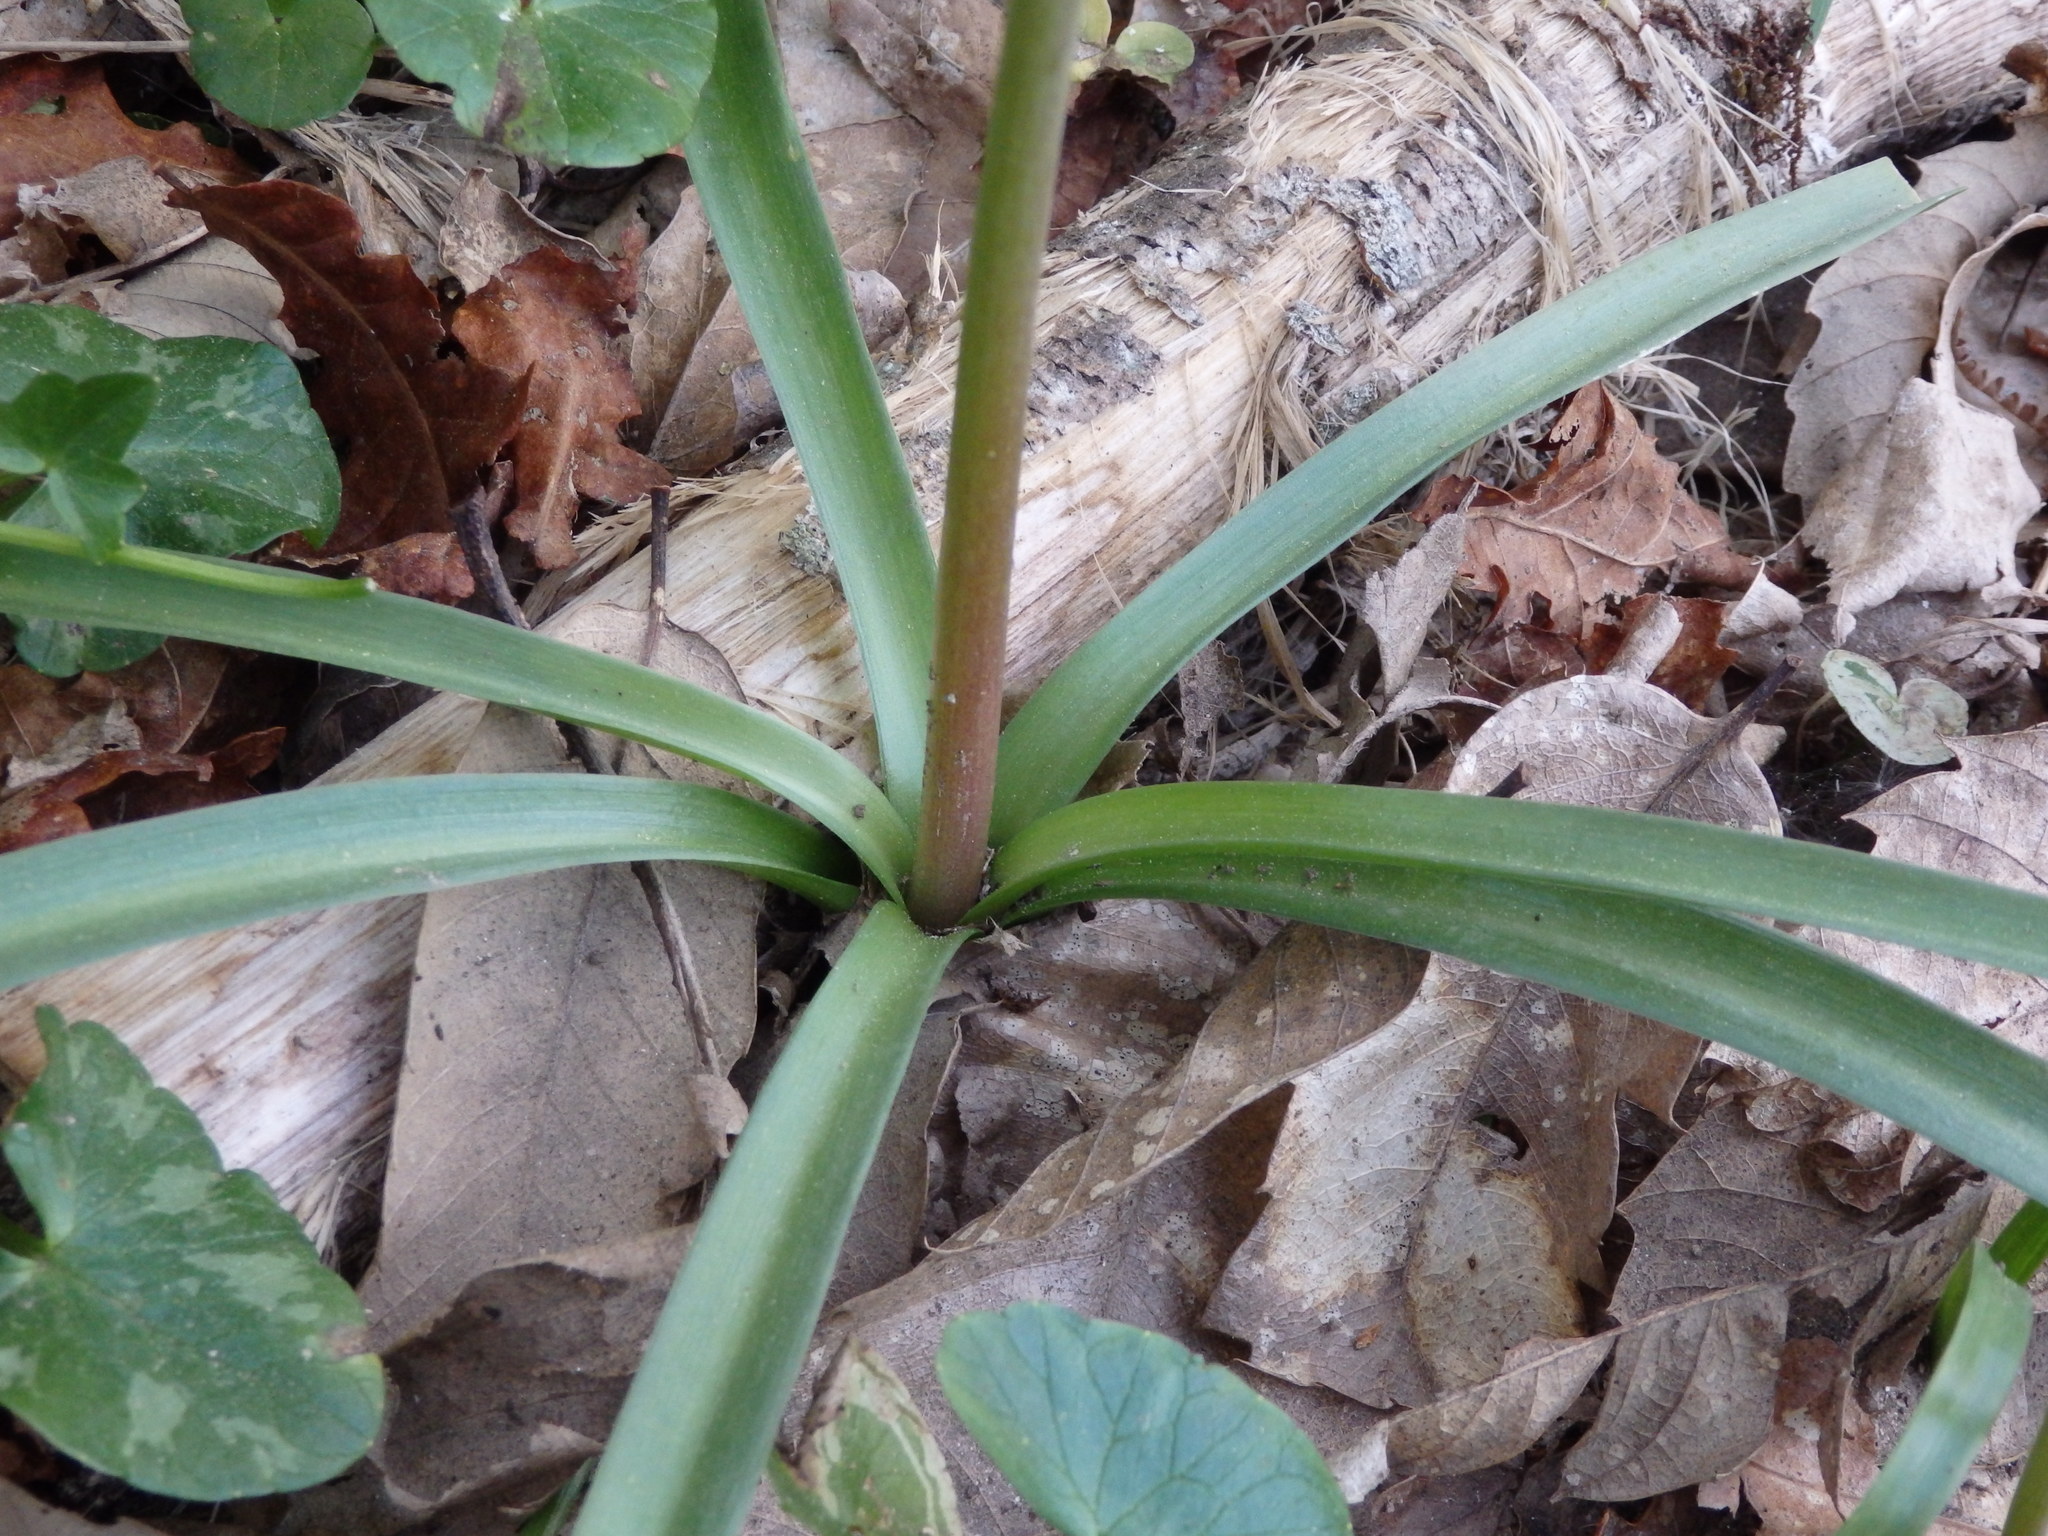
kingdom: Plantae
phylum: Tracheophyta
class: Liliopsida
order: Asparagales
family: Asparagaceae
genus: Hyacinthoides
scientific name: Hyacinthoides paivae
